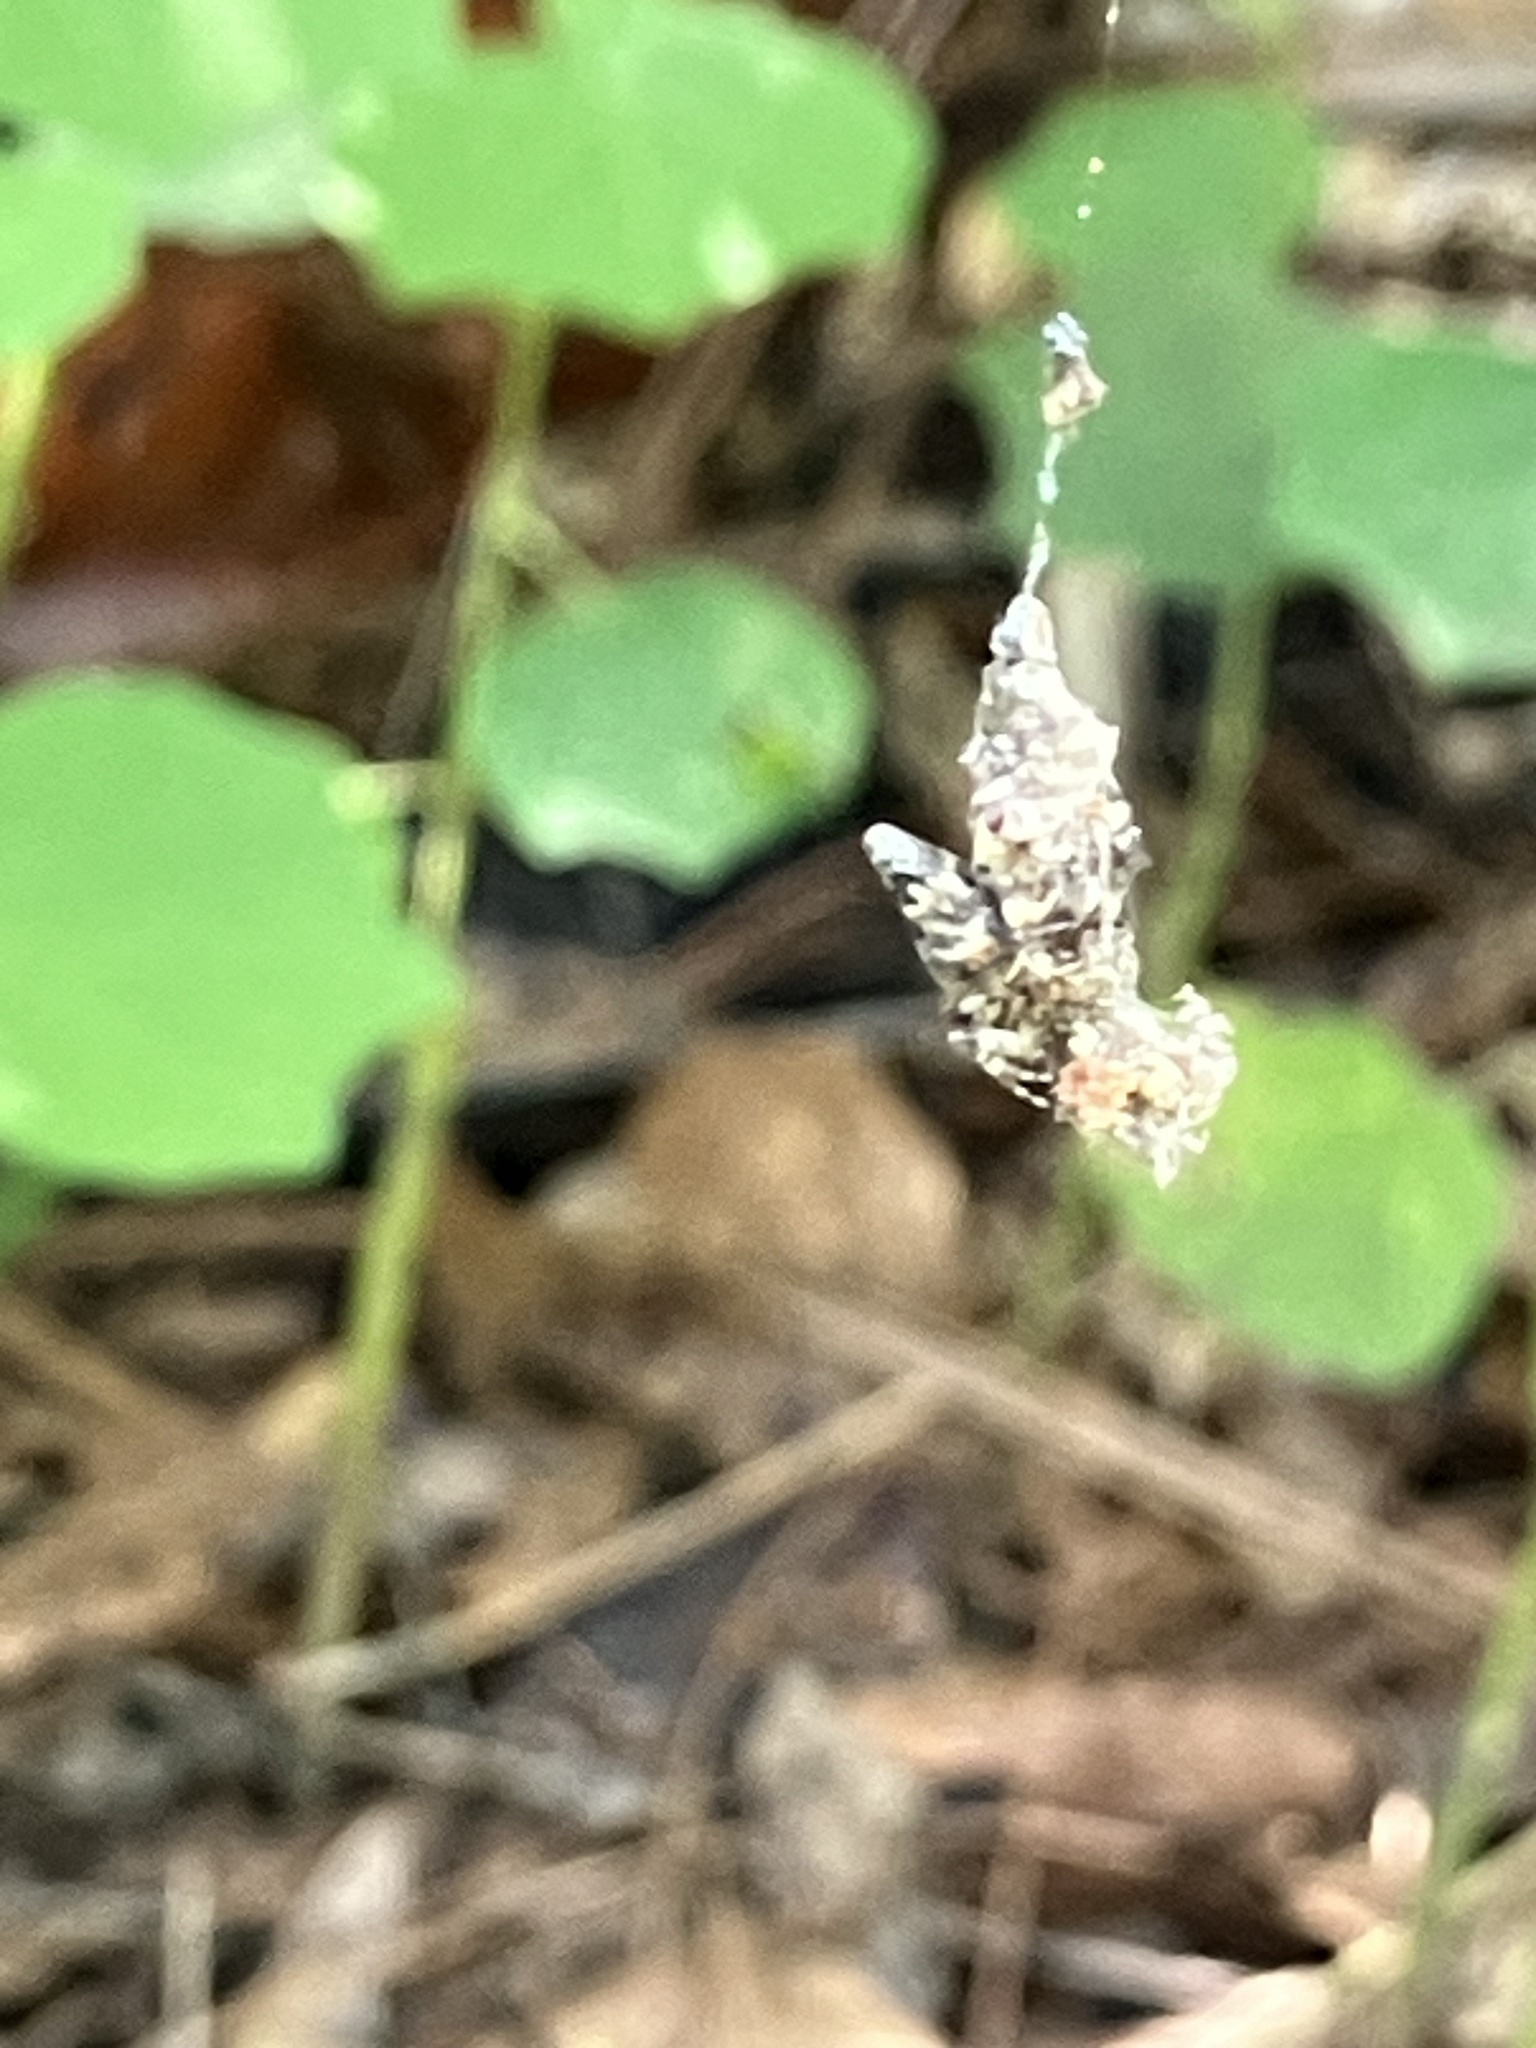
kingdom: Animalia
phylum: Arthropoda
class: Arachnida
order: Araneae
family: Araneidae
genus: Cyclosa
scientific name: Cyclosa caroli
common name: Orb weavers
